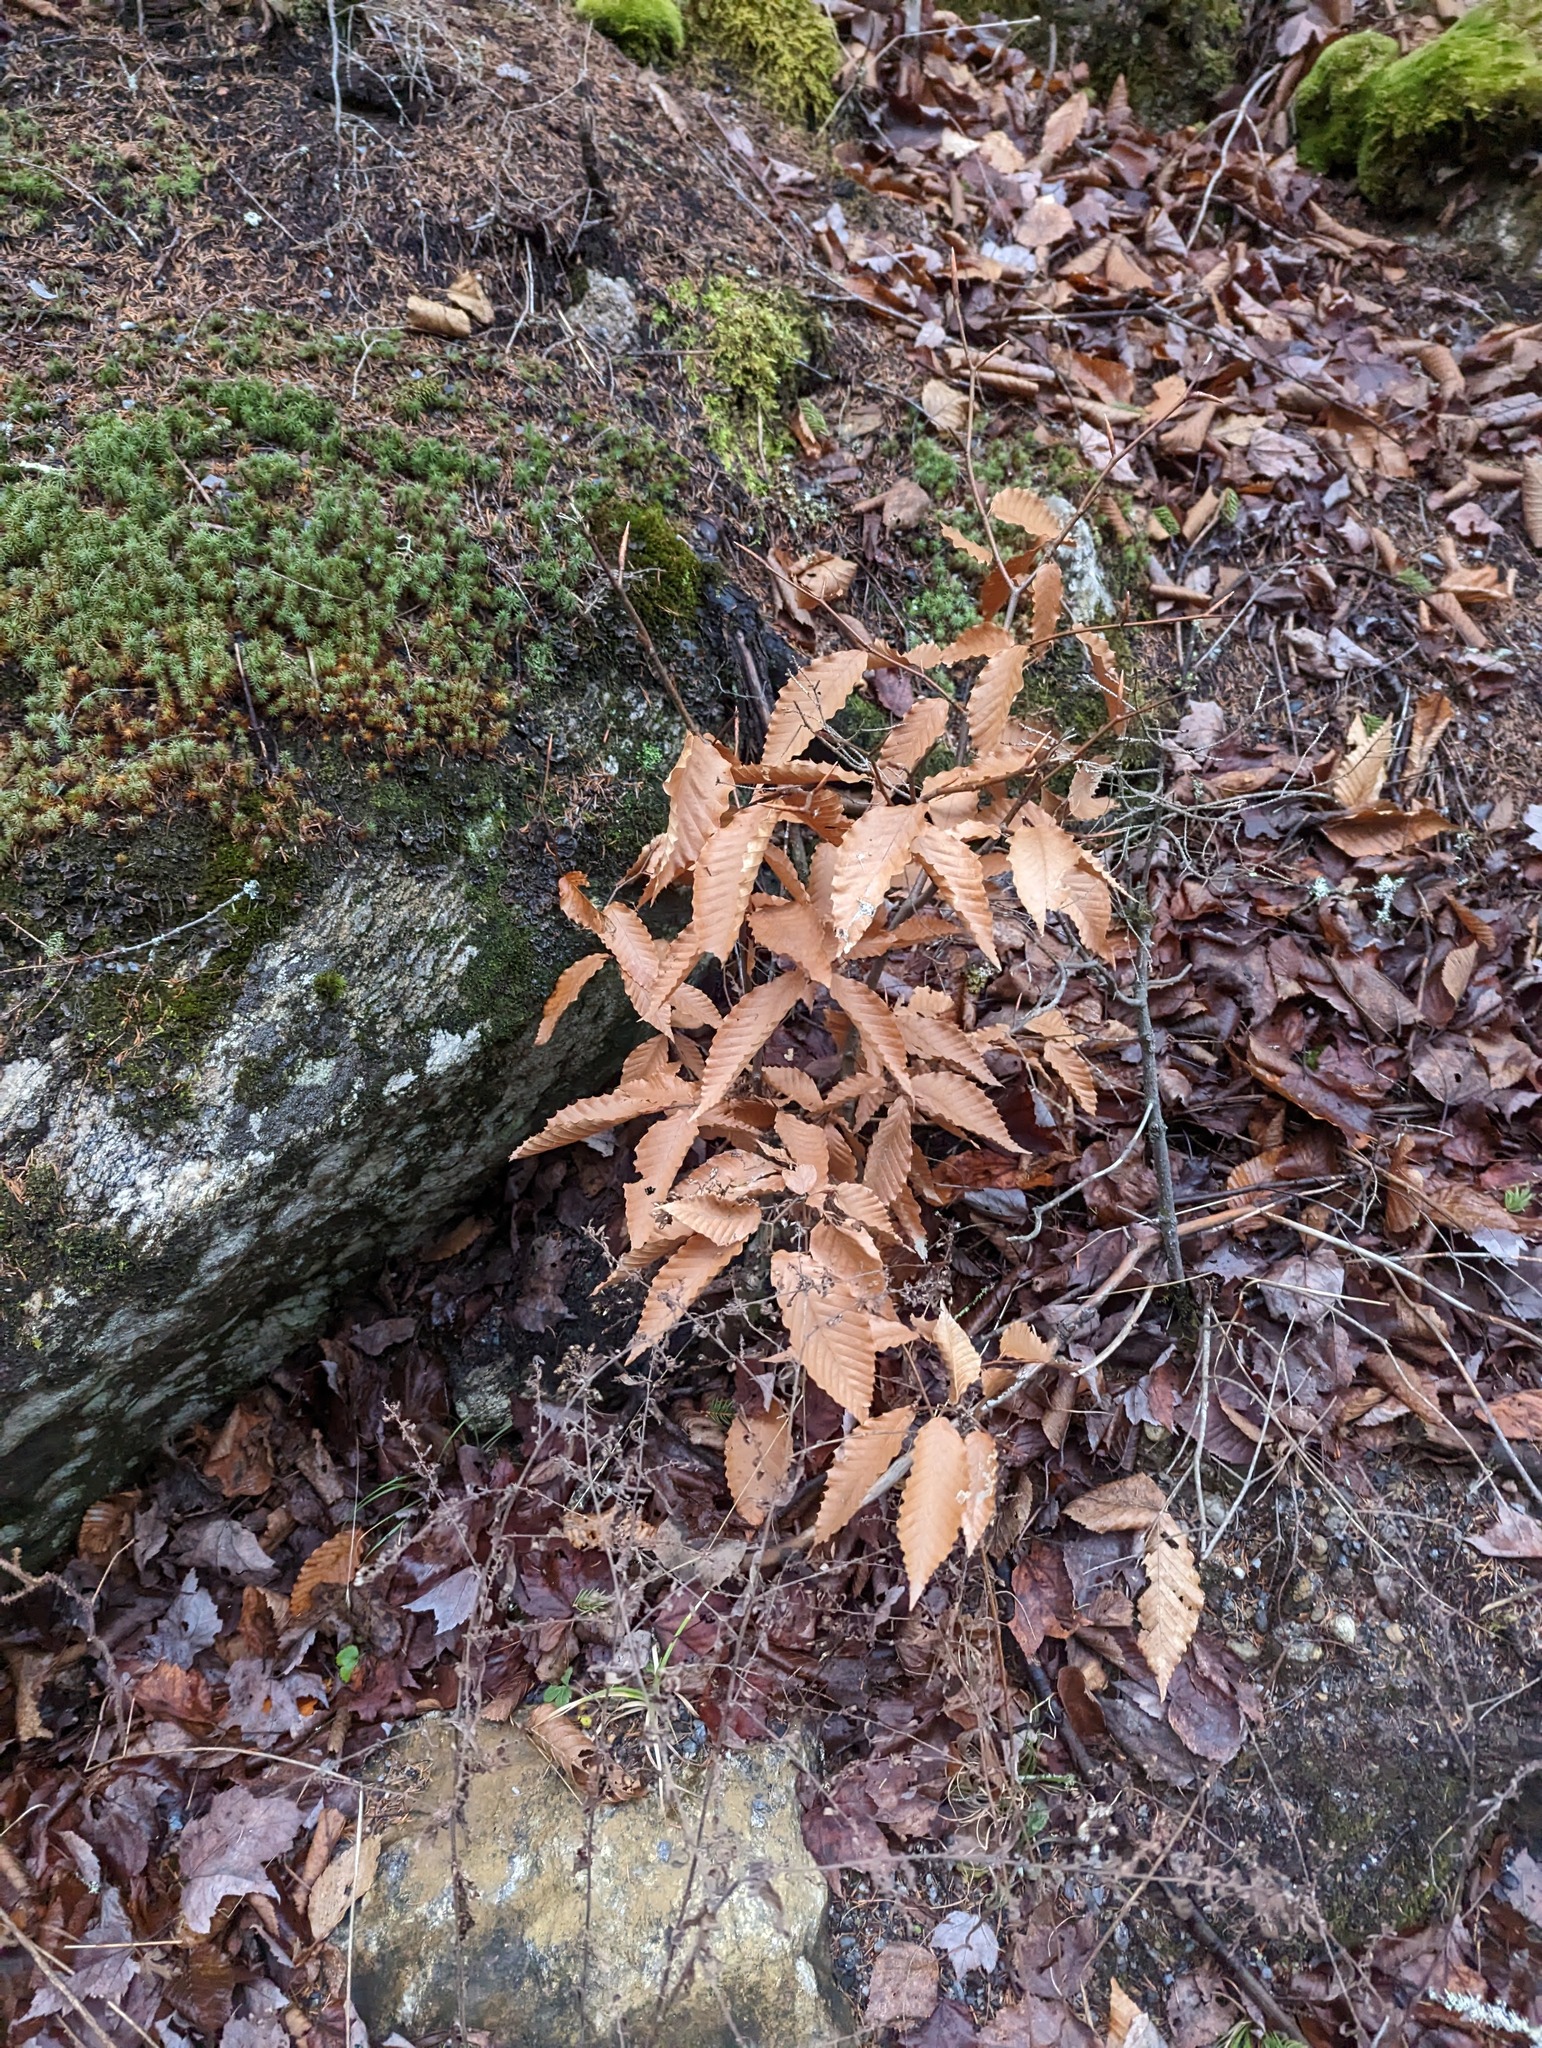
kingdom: Plantae
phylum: Tracheophyta
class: Magnoliopsida
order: Fagales
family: Fagaceae
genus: Fagus
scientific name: Fagus grandifolia
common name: American beech
